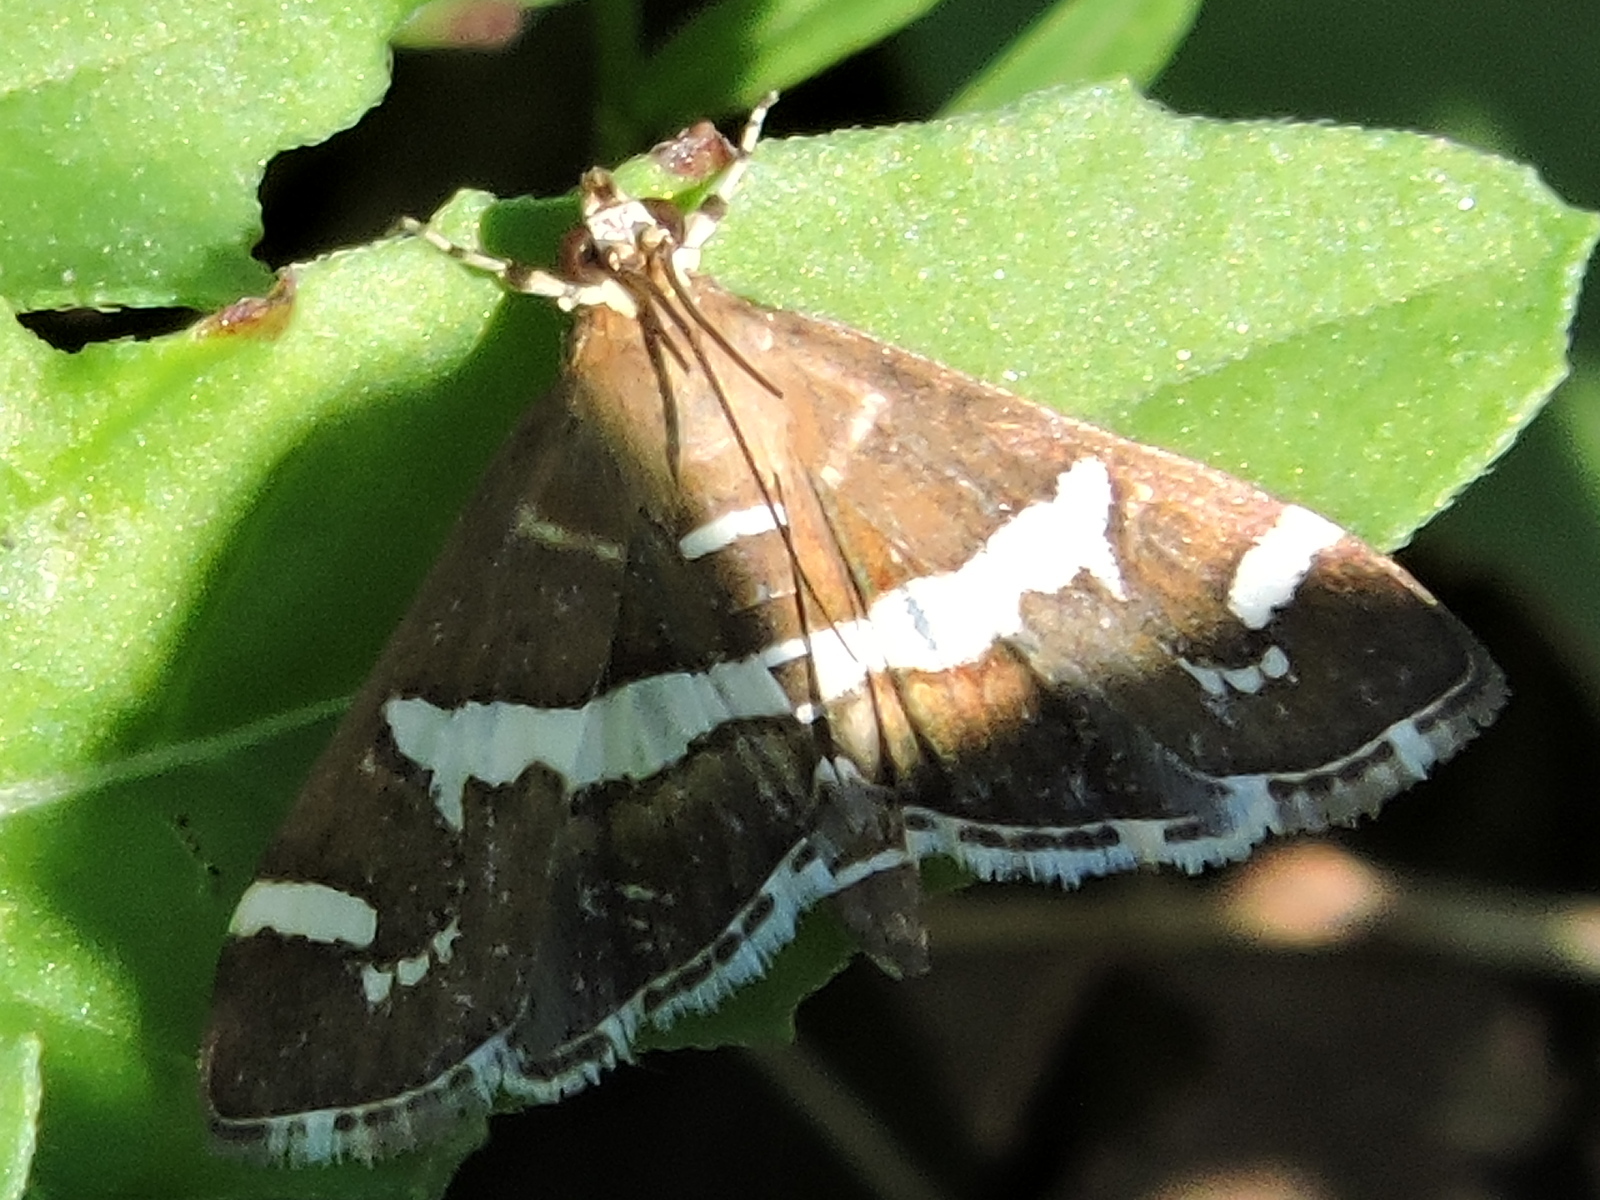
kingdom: Animalia
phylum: Arthropoda
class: Insecta
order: Lepidoptera
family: Crambidae
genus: Spoladea
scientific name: Spoladea recurvalis
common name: Beet webworm moth
